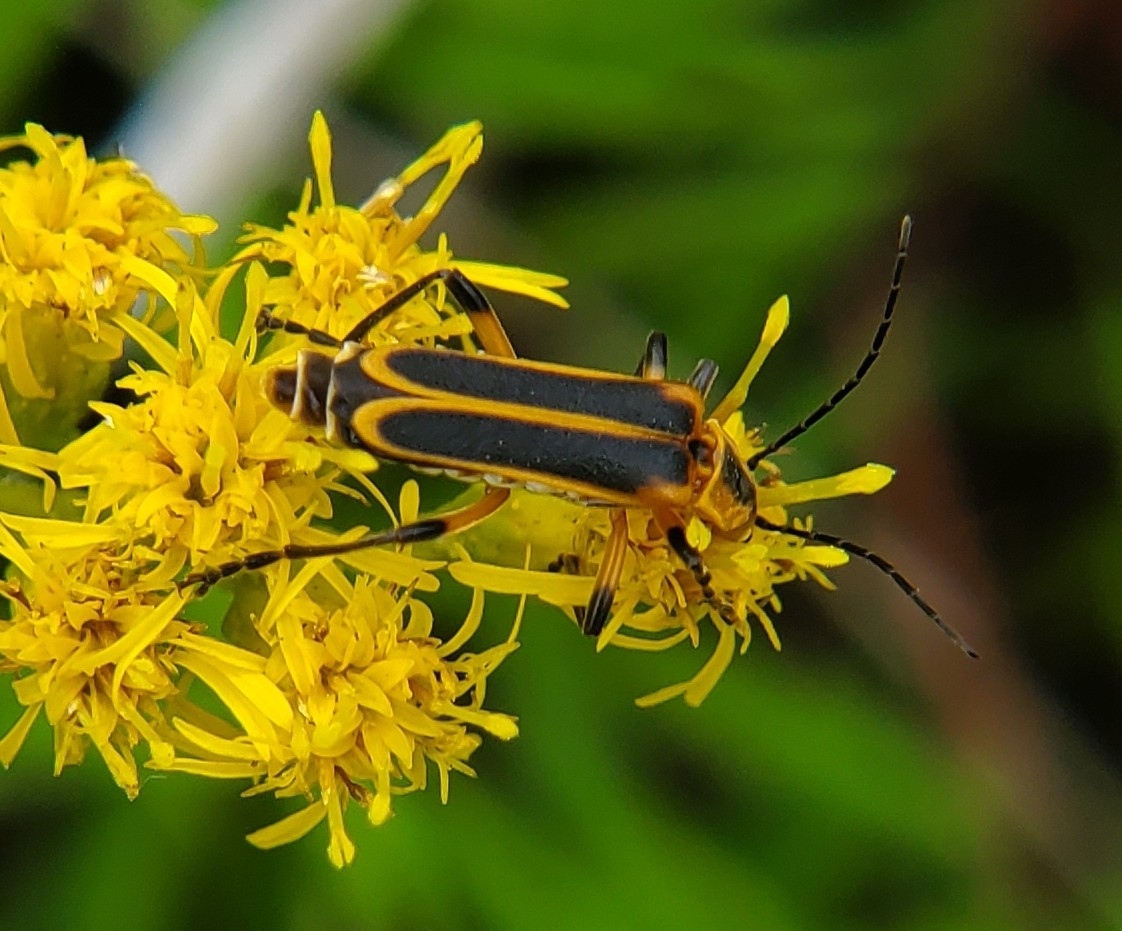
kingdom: Animalia
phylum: Arthropoda
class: Insecta
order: Coleoptera
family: Cantharidae
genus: Chauliognathus
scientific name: Chauliognathus marginatus
